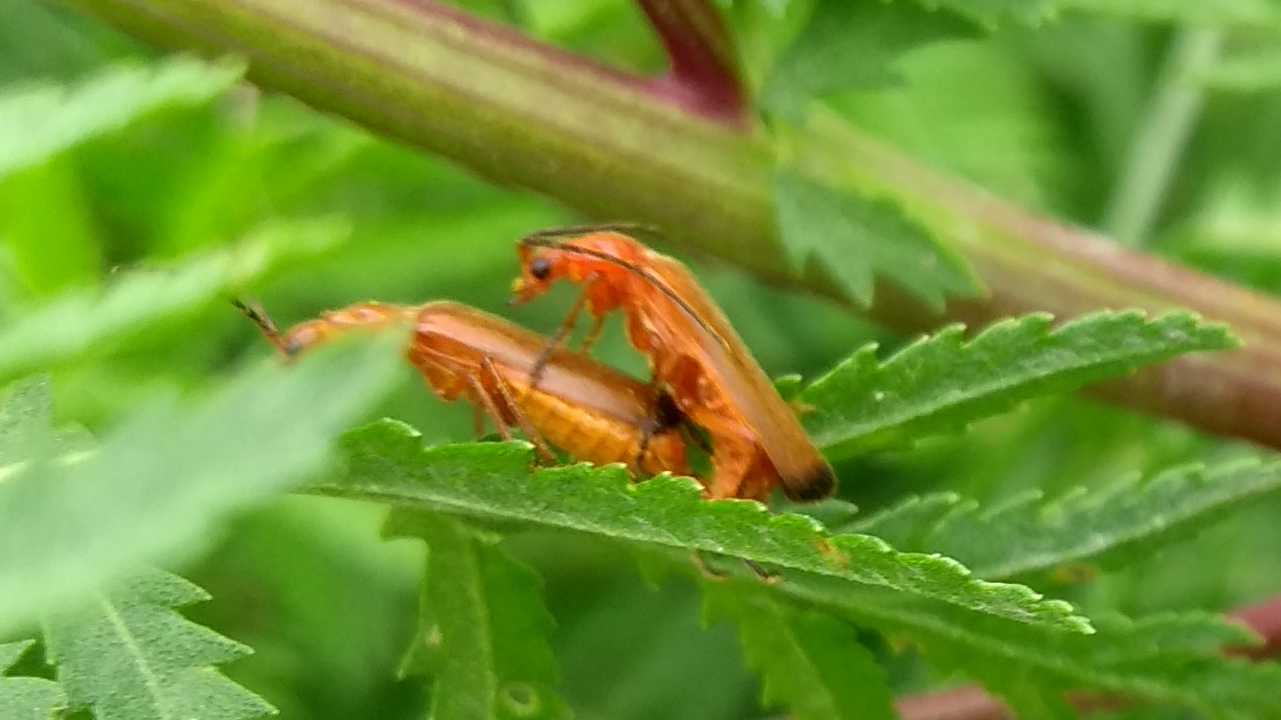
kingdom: Animalia
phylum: Arthropoda
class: Insecta
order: Coleoptera
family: Cantharidae
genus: Rhagonycha
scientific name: Rhagonycha fulva
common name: Common red soldier beetle
